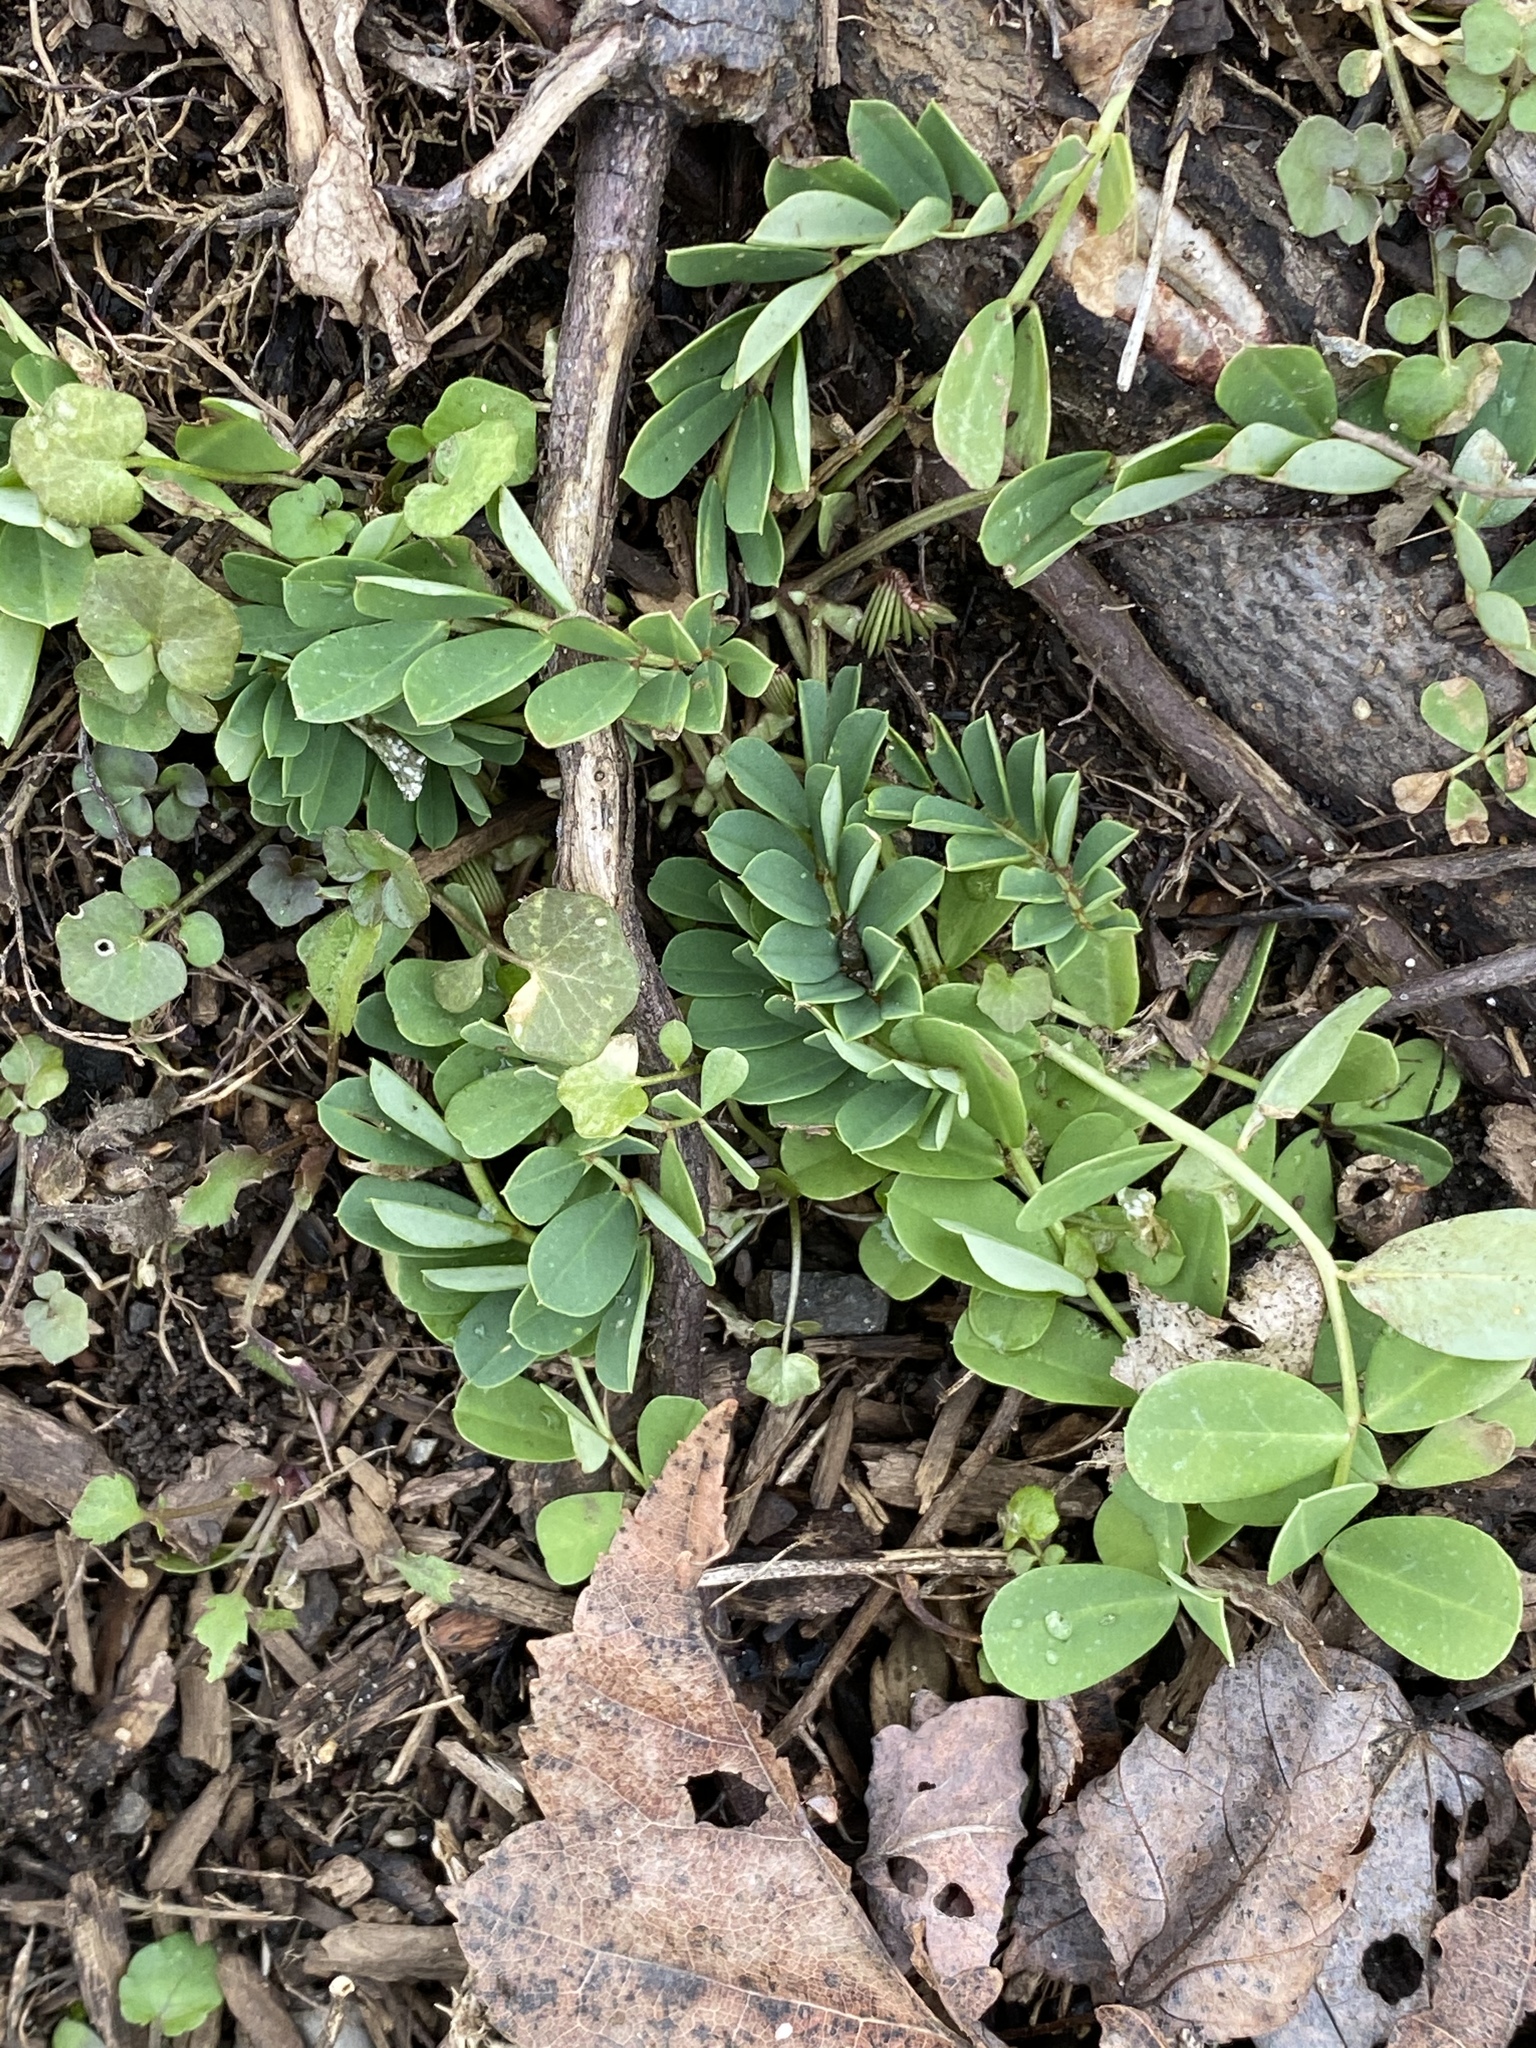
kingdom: Plantae
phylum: Tracheophyta
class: Magnoliopsida
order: Fabales
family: Fabaceae
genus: Coronilla
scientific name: Coronilla varia
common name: Crownvetch
